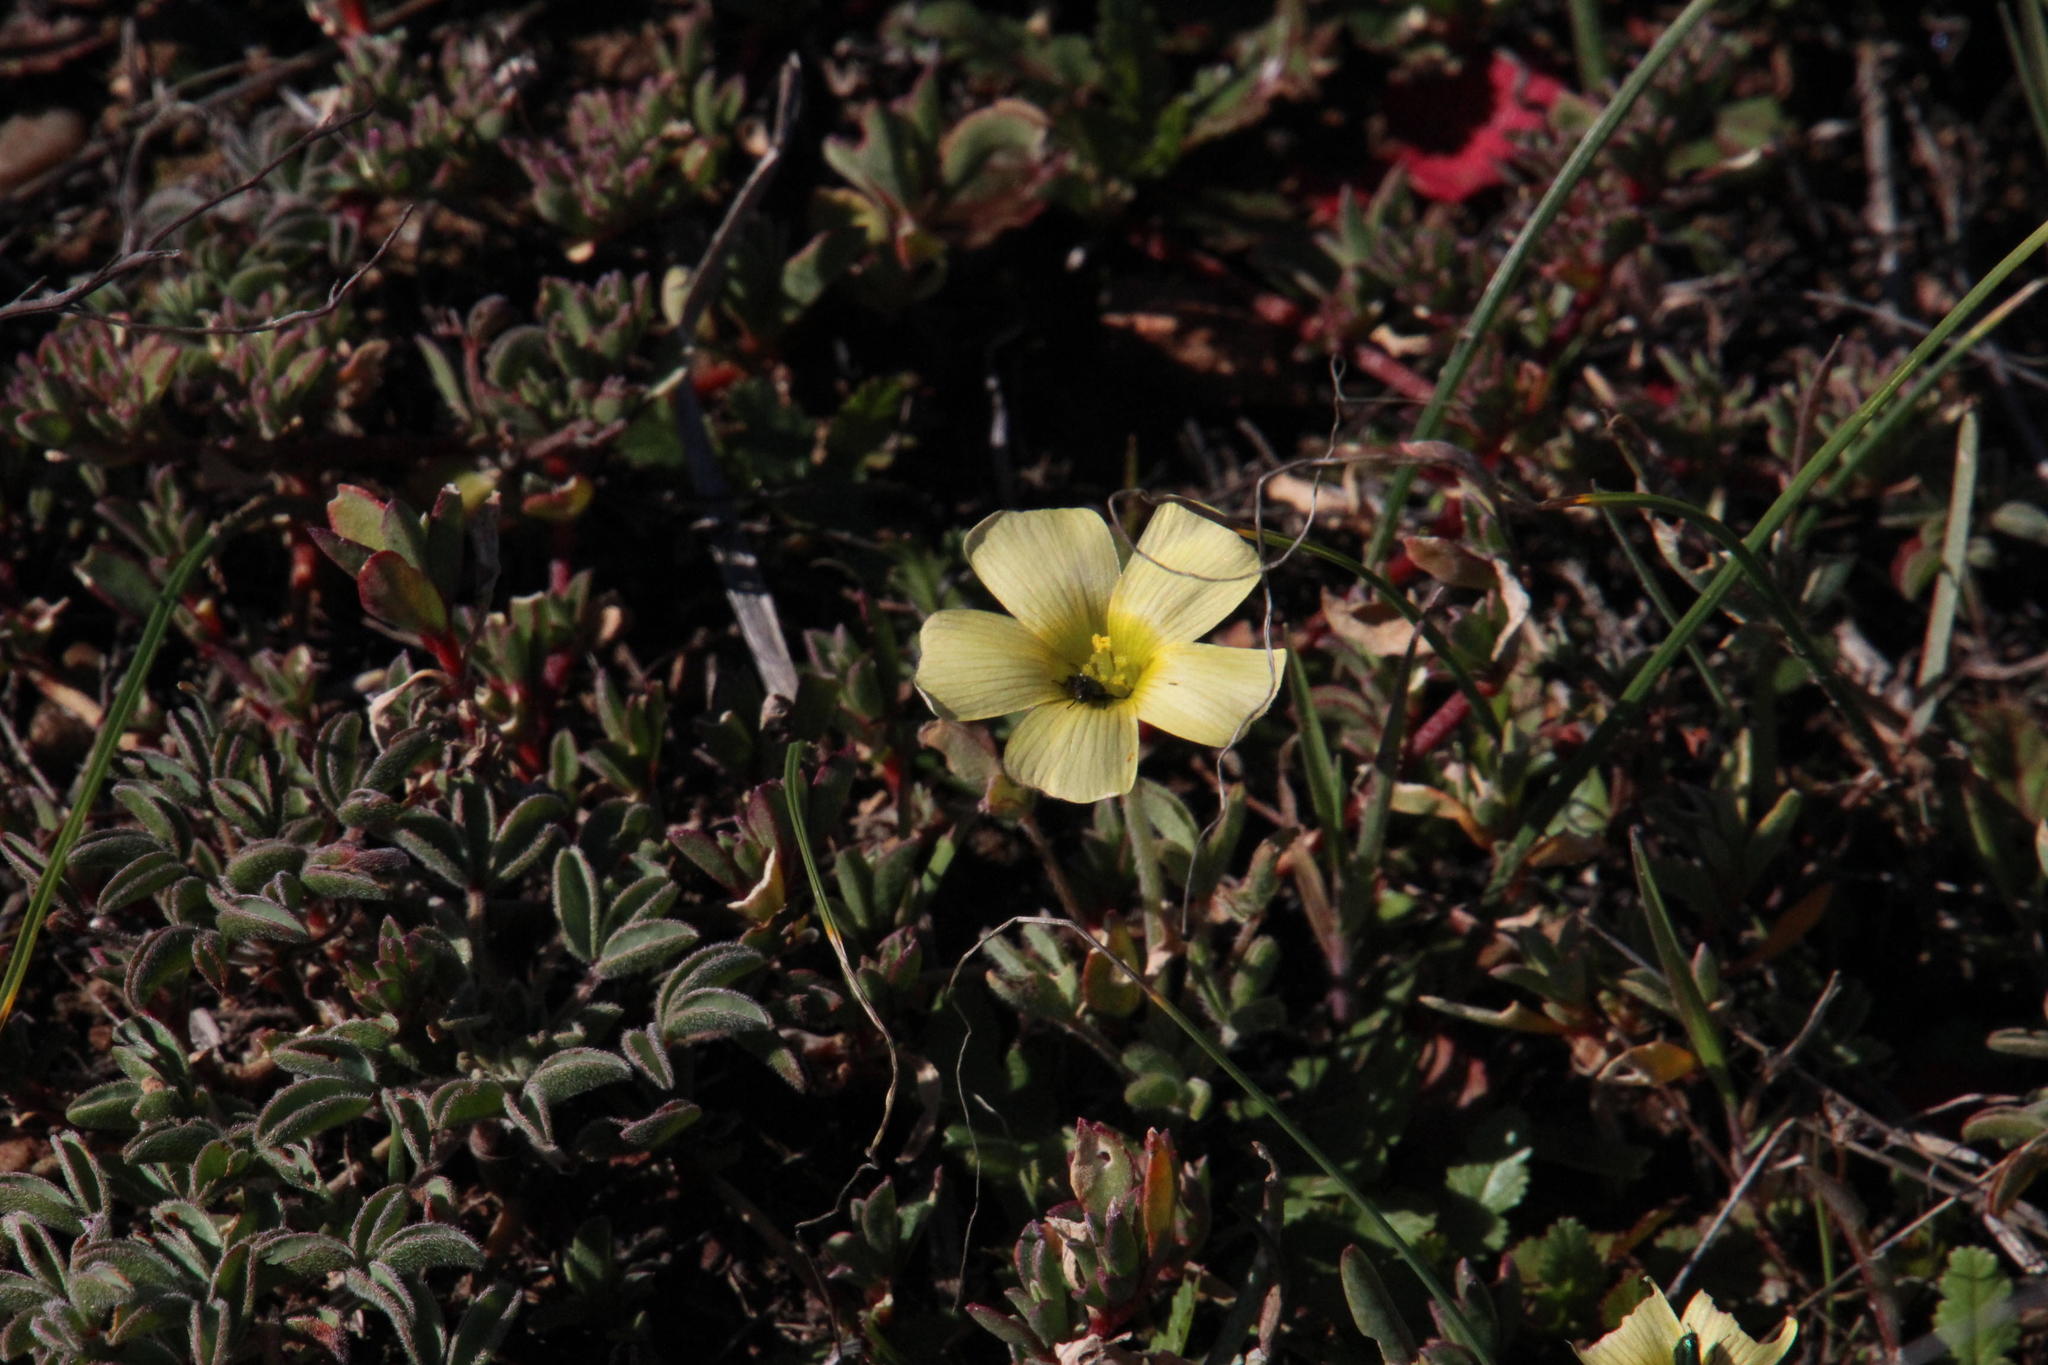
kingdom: Plantae
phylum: Tracheophyta
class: Magnoliopsida
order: Oxalidales
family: Oxalidaceae
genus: Oxalis
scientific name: Oxalis obtusa
